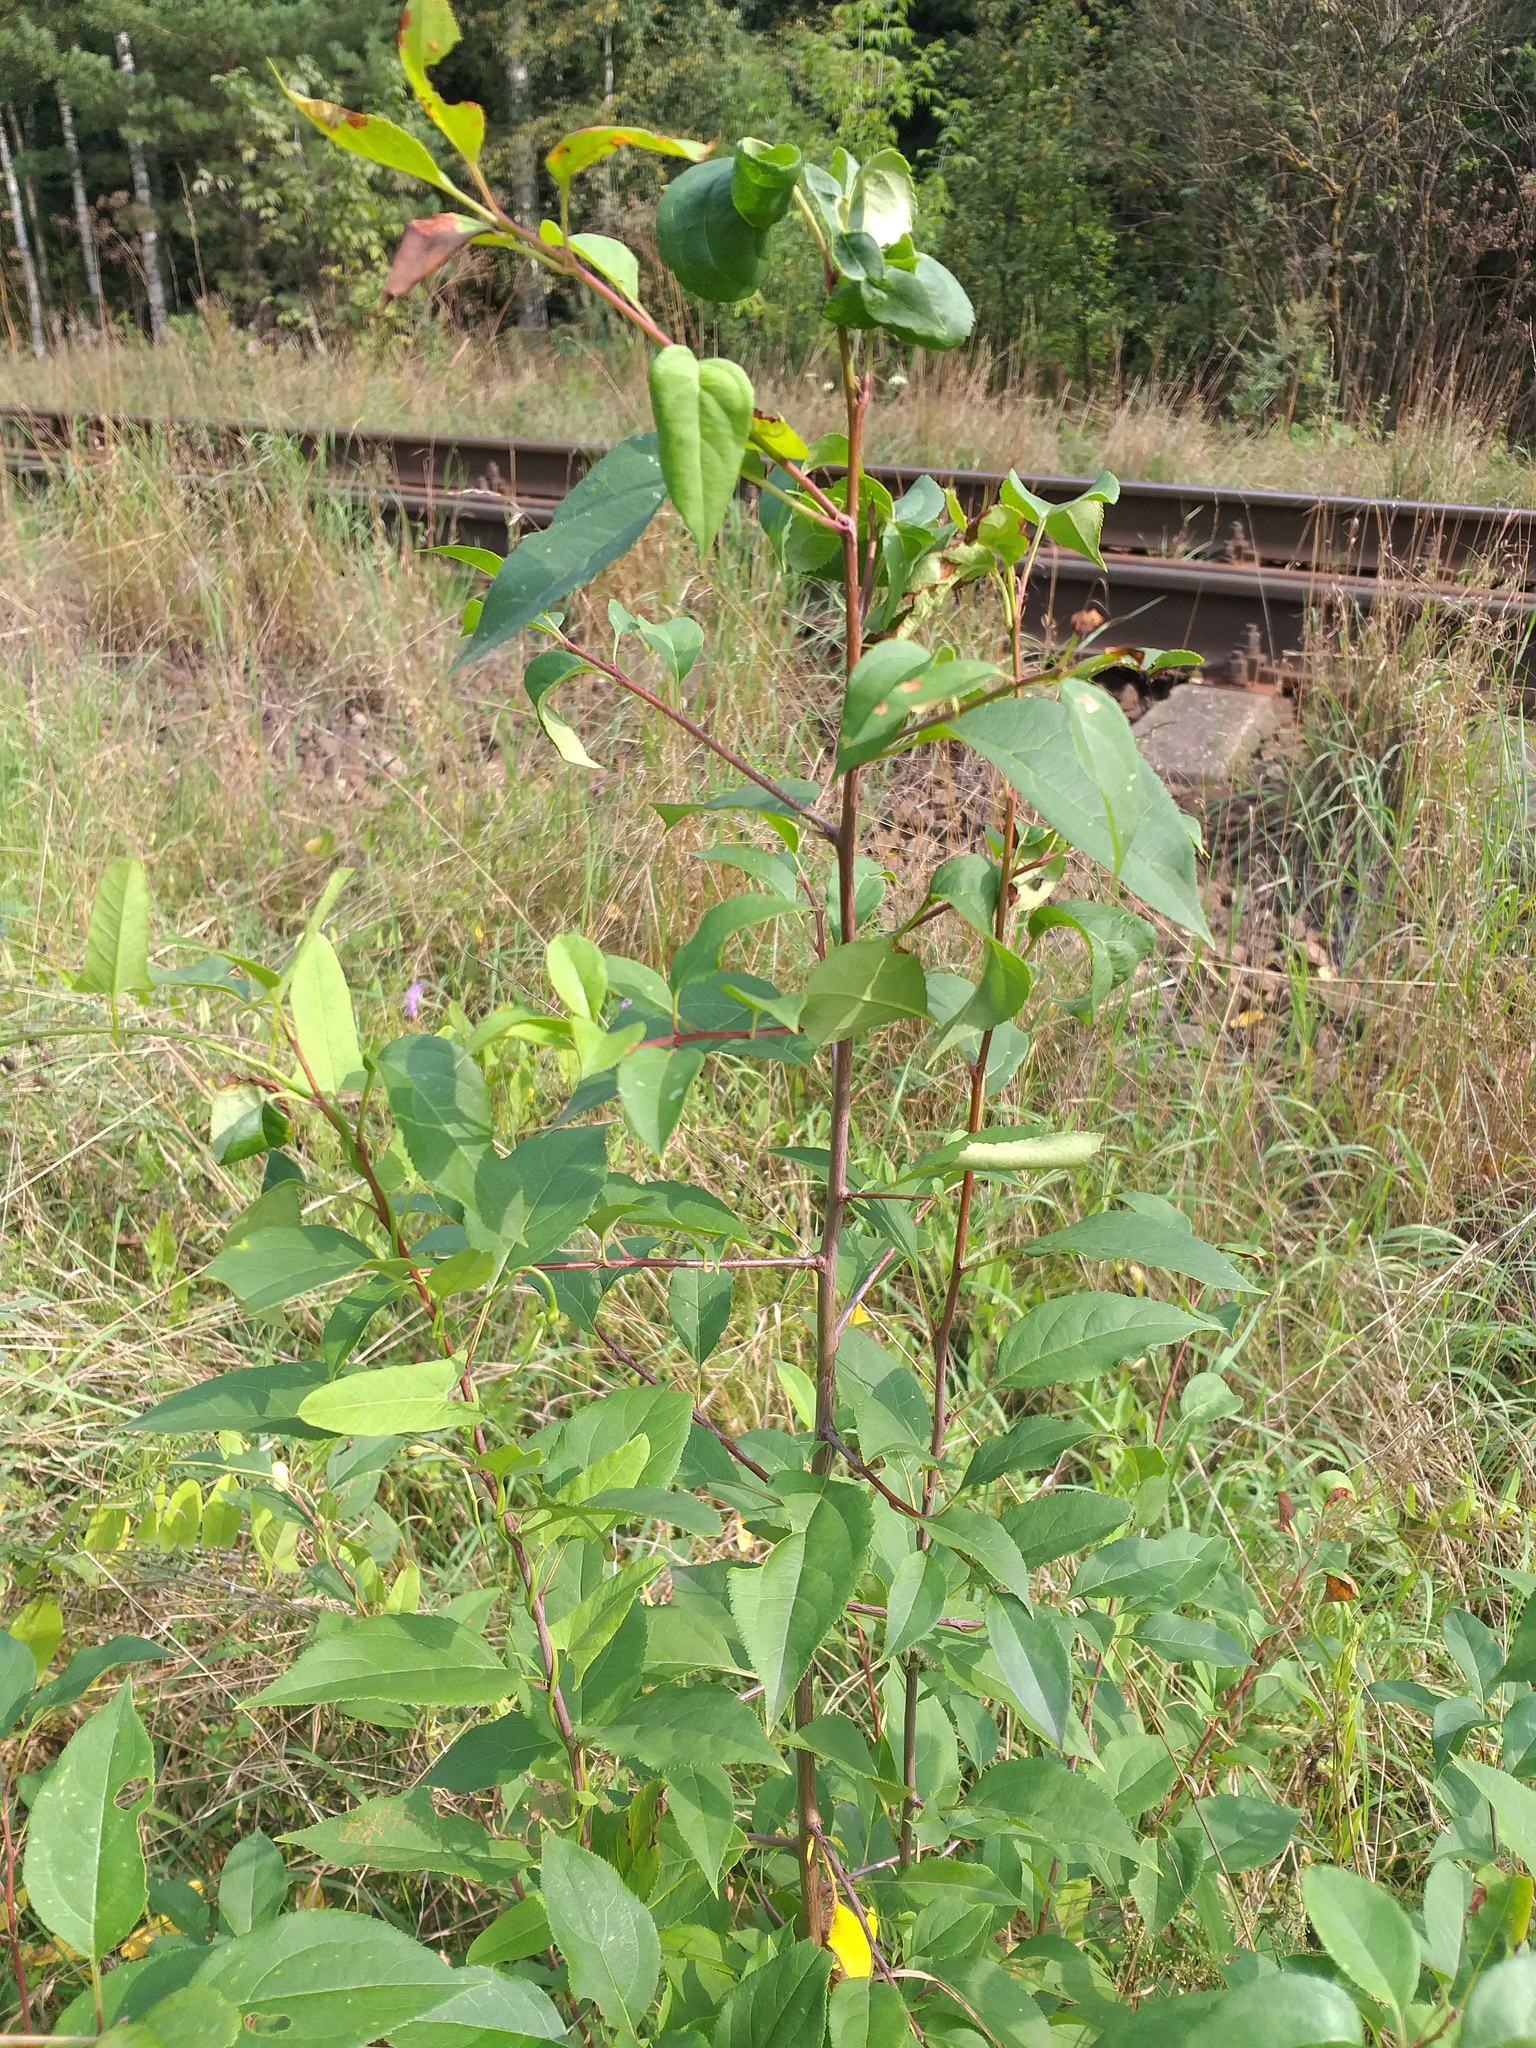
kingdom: Plantae
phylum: Tracheophyta
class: Magnoliopsida
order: Rosales
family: Rosaceae
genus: Malus
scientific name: Malus baccata
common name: Siberian crab
